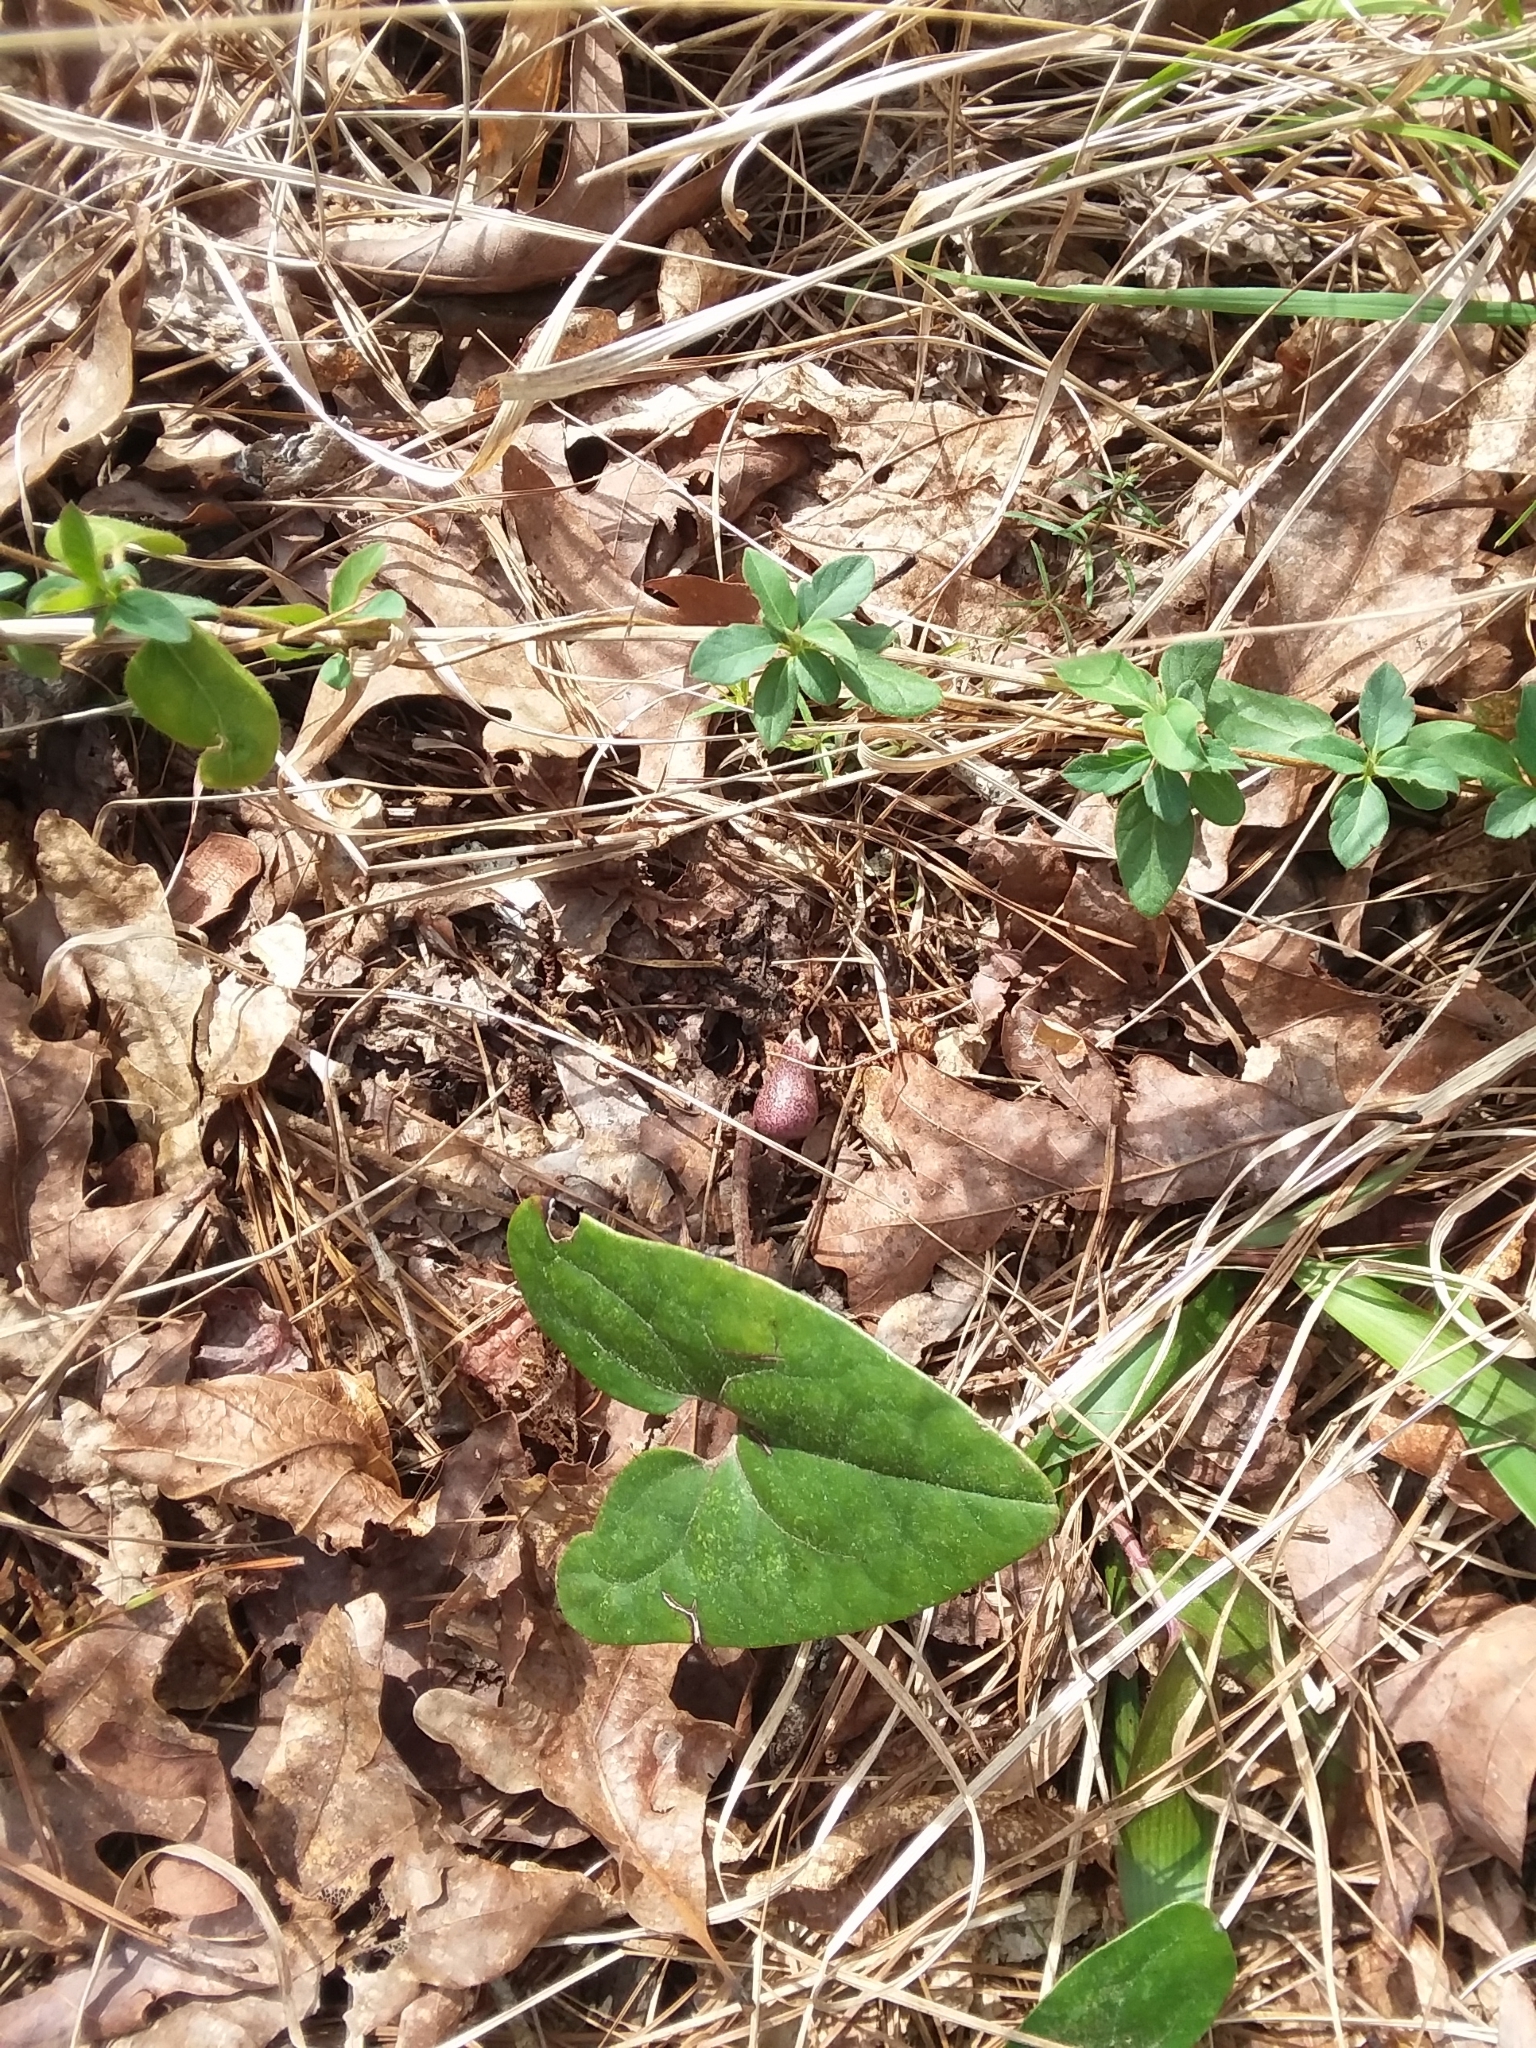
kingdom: Plantae
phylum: Tracheophyta
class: Magnoliopsida
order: Piperales
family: Aristolochiaceae
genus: Hexastylis
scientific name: Hexastylis arifolia
